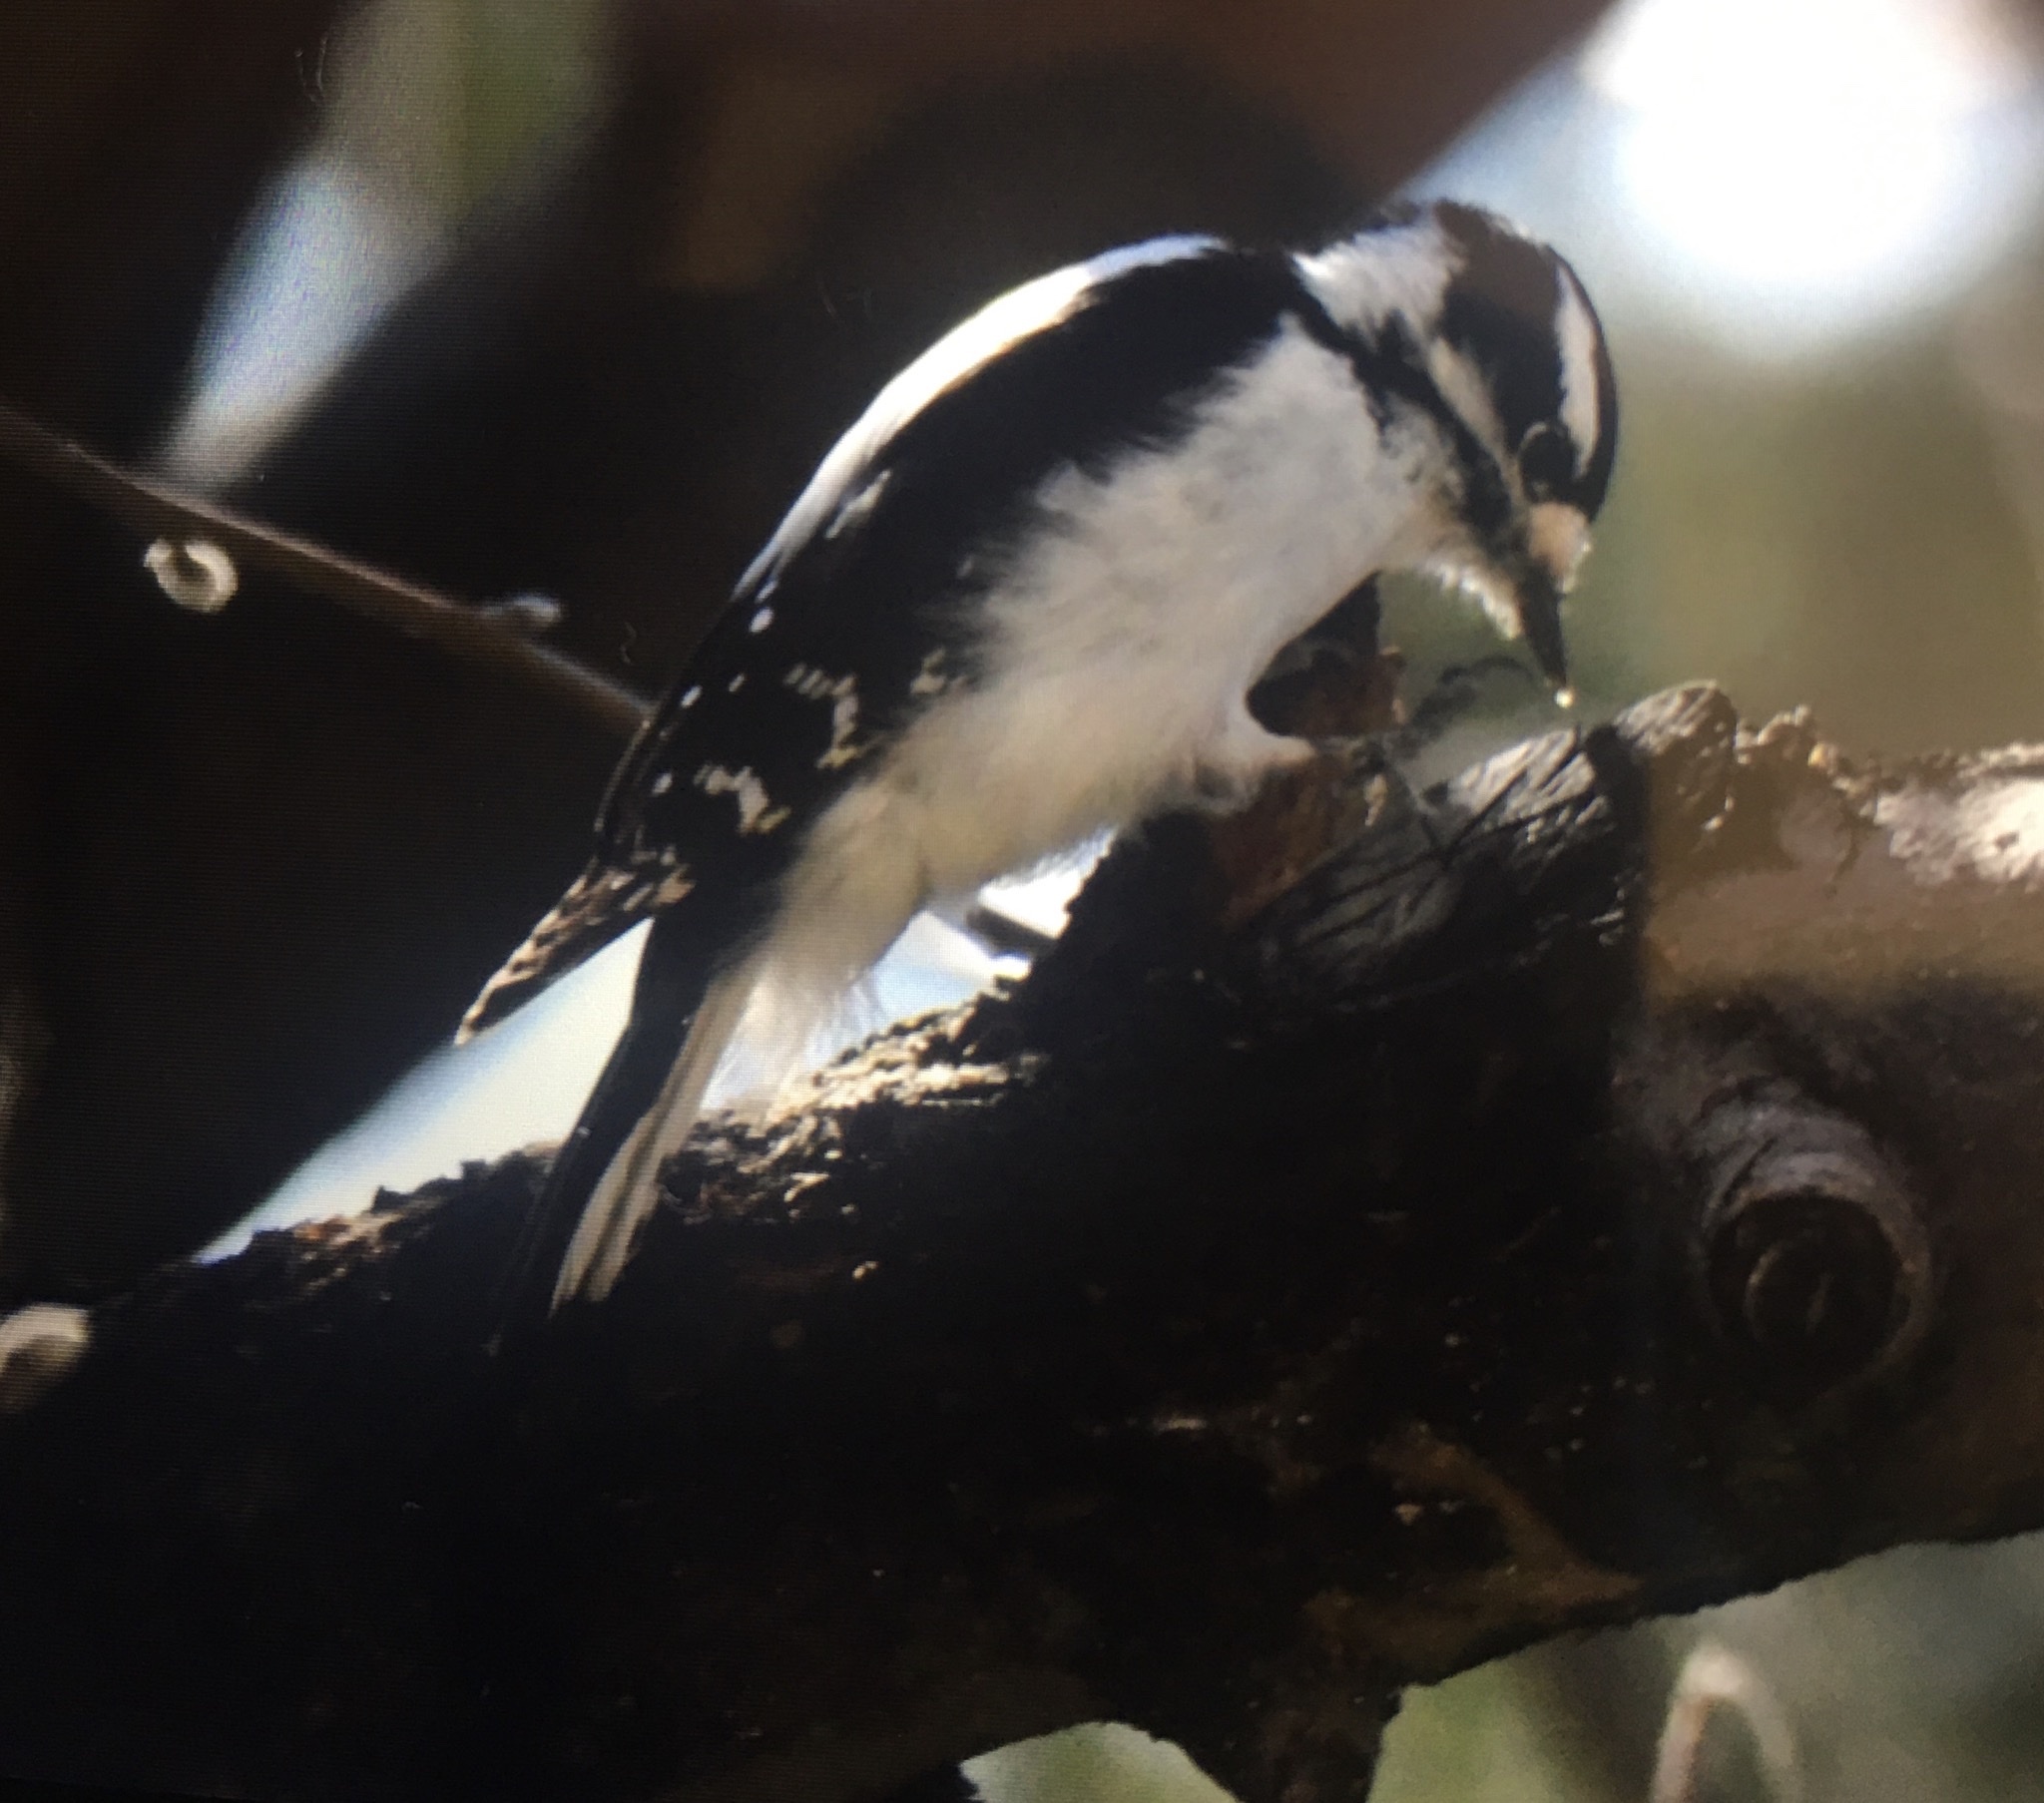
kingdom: Animalia
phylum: Chordata
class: Aves
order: Piciformes
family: Picidae
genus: Dryobates
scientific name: Dryobates pubescens
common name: Downy woodpecker
